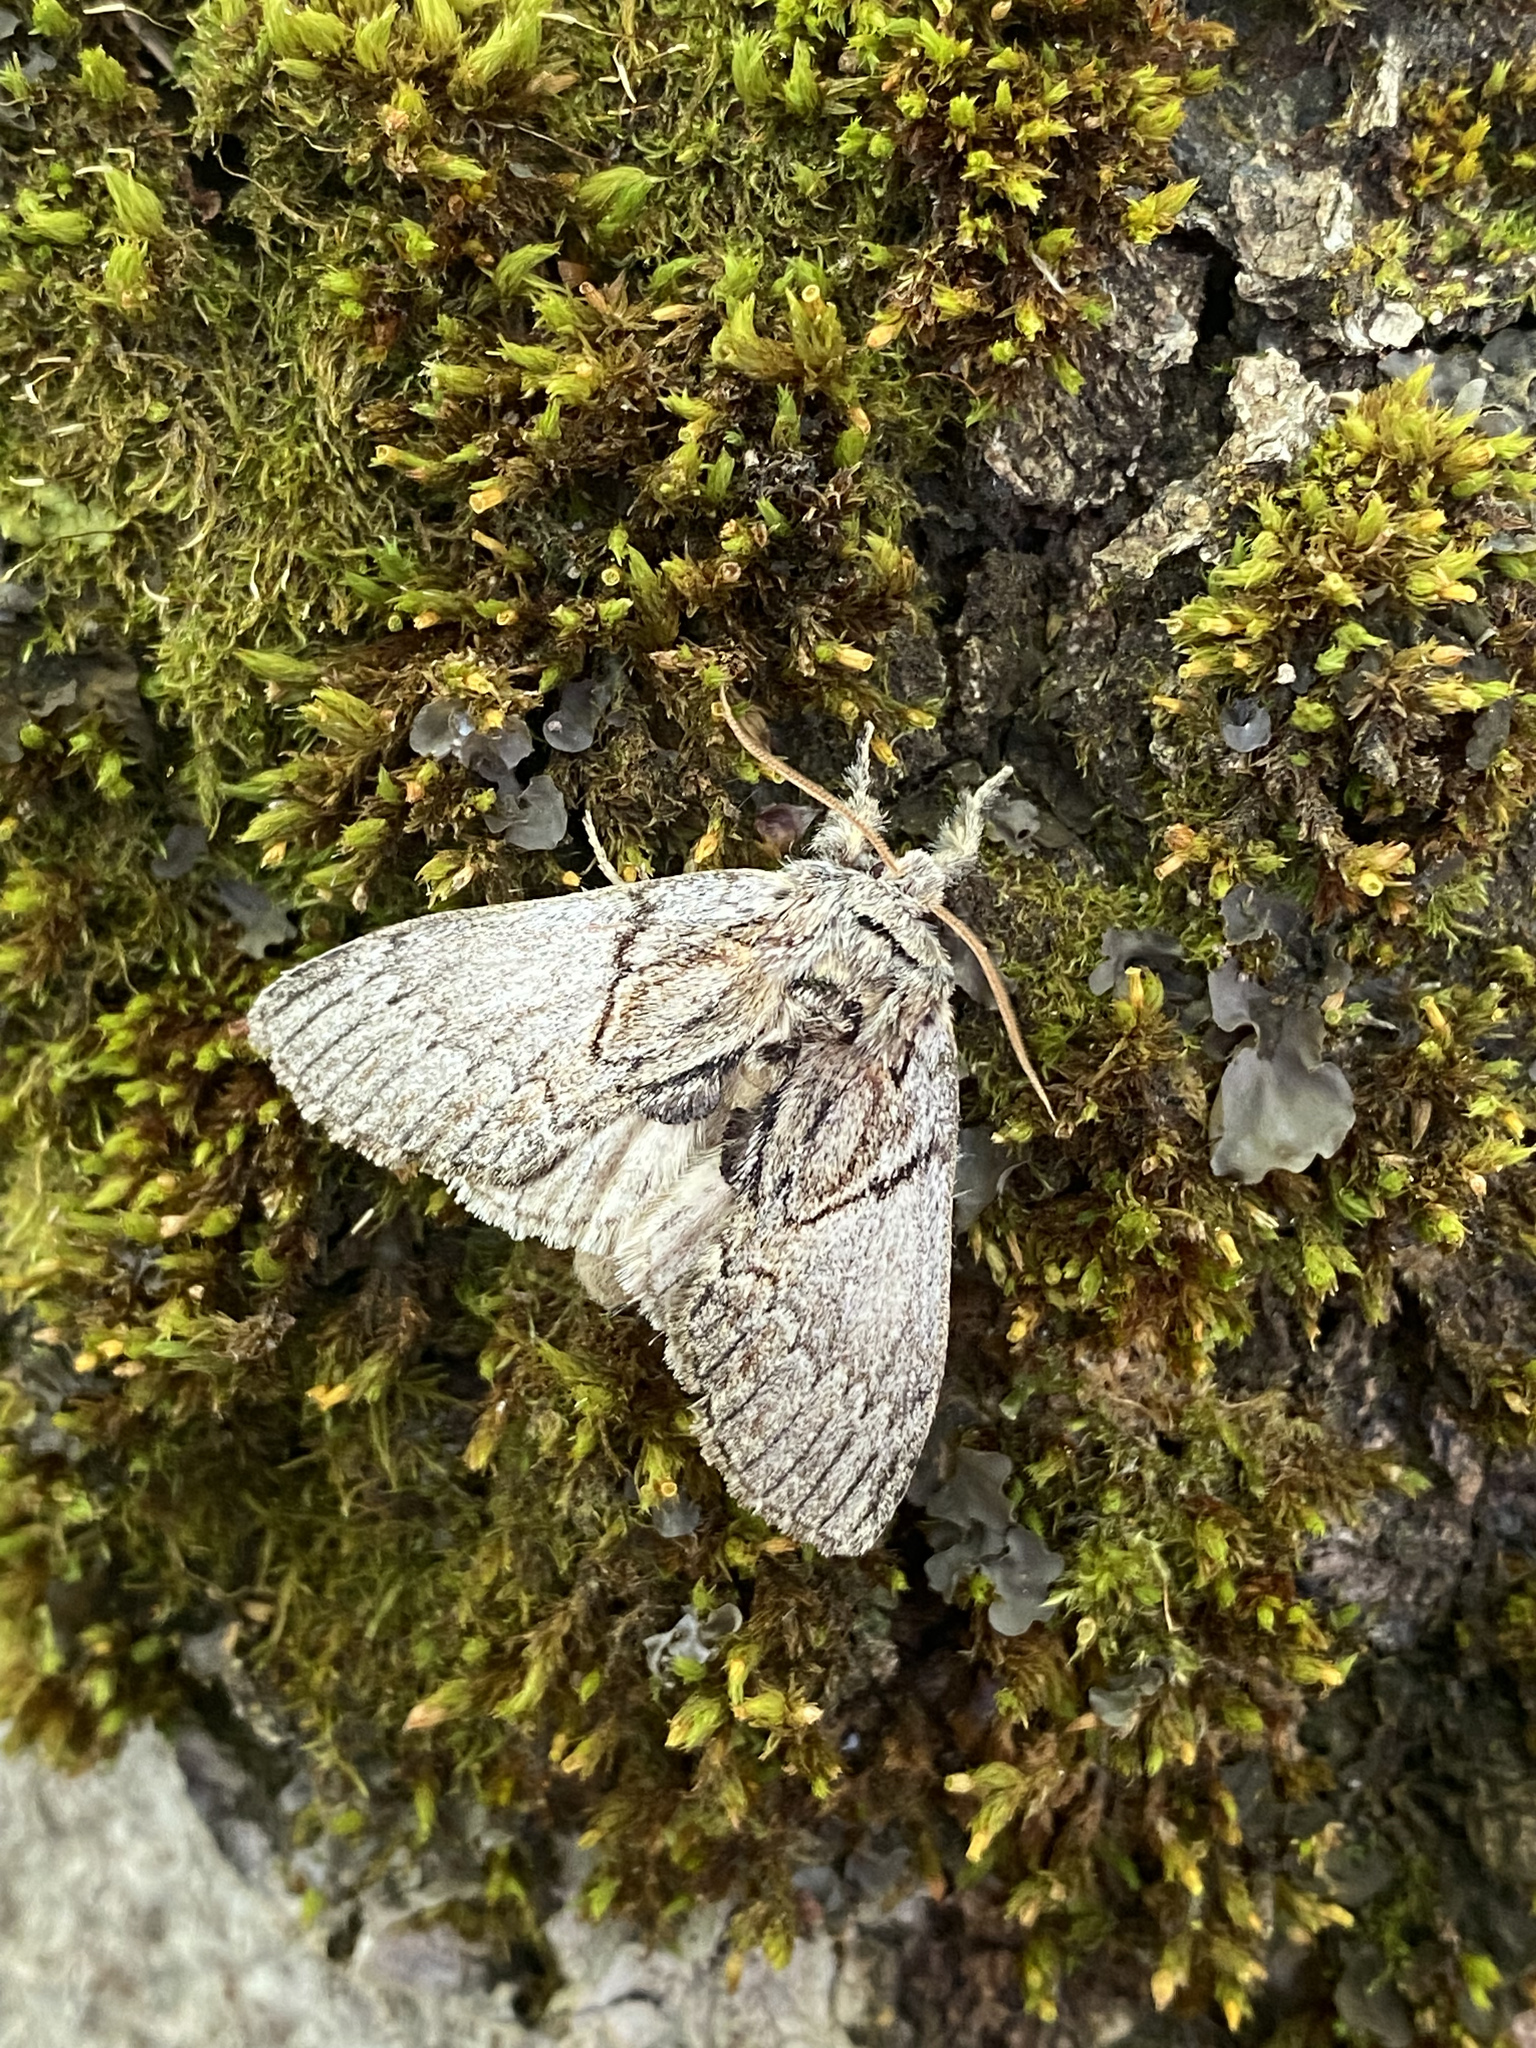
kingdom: Animalia
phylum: Arthropoda
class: Insecta
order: Lepidoptera
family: Notodontidae
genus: Peridea
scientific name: Peridea basitriens
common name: Oval-based prominent
